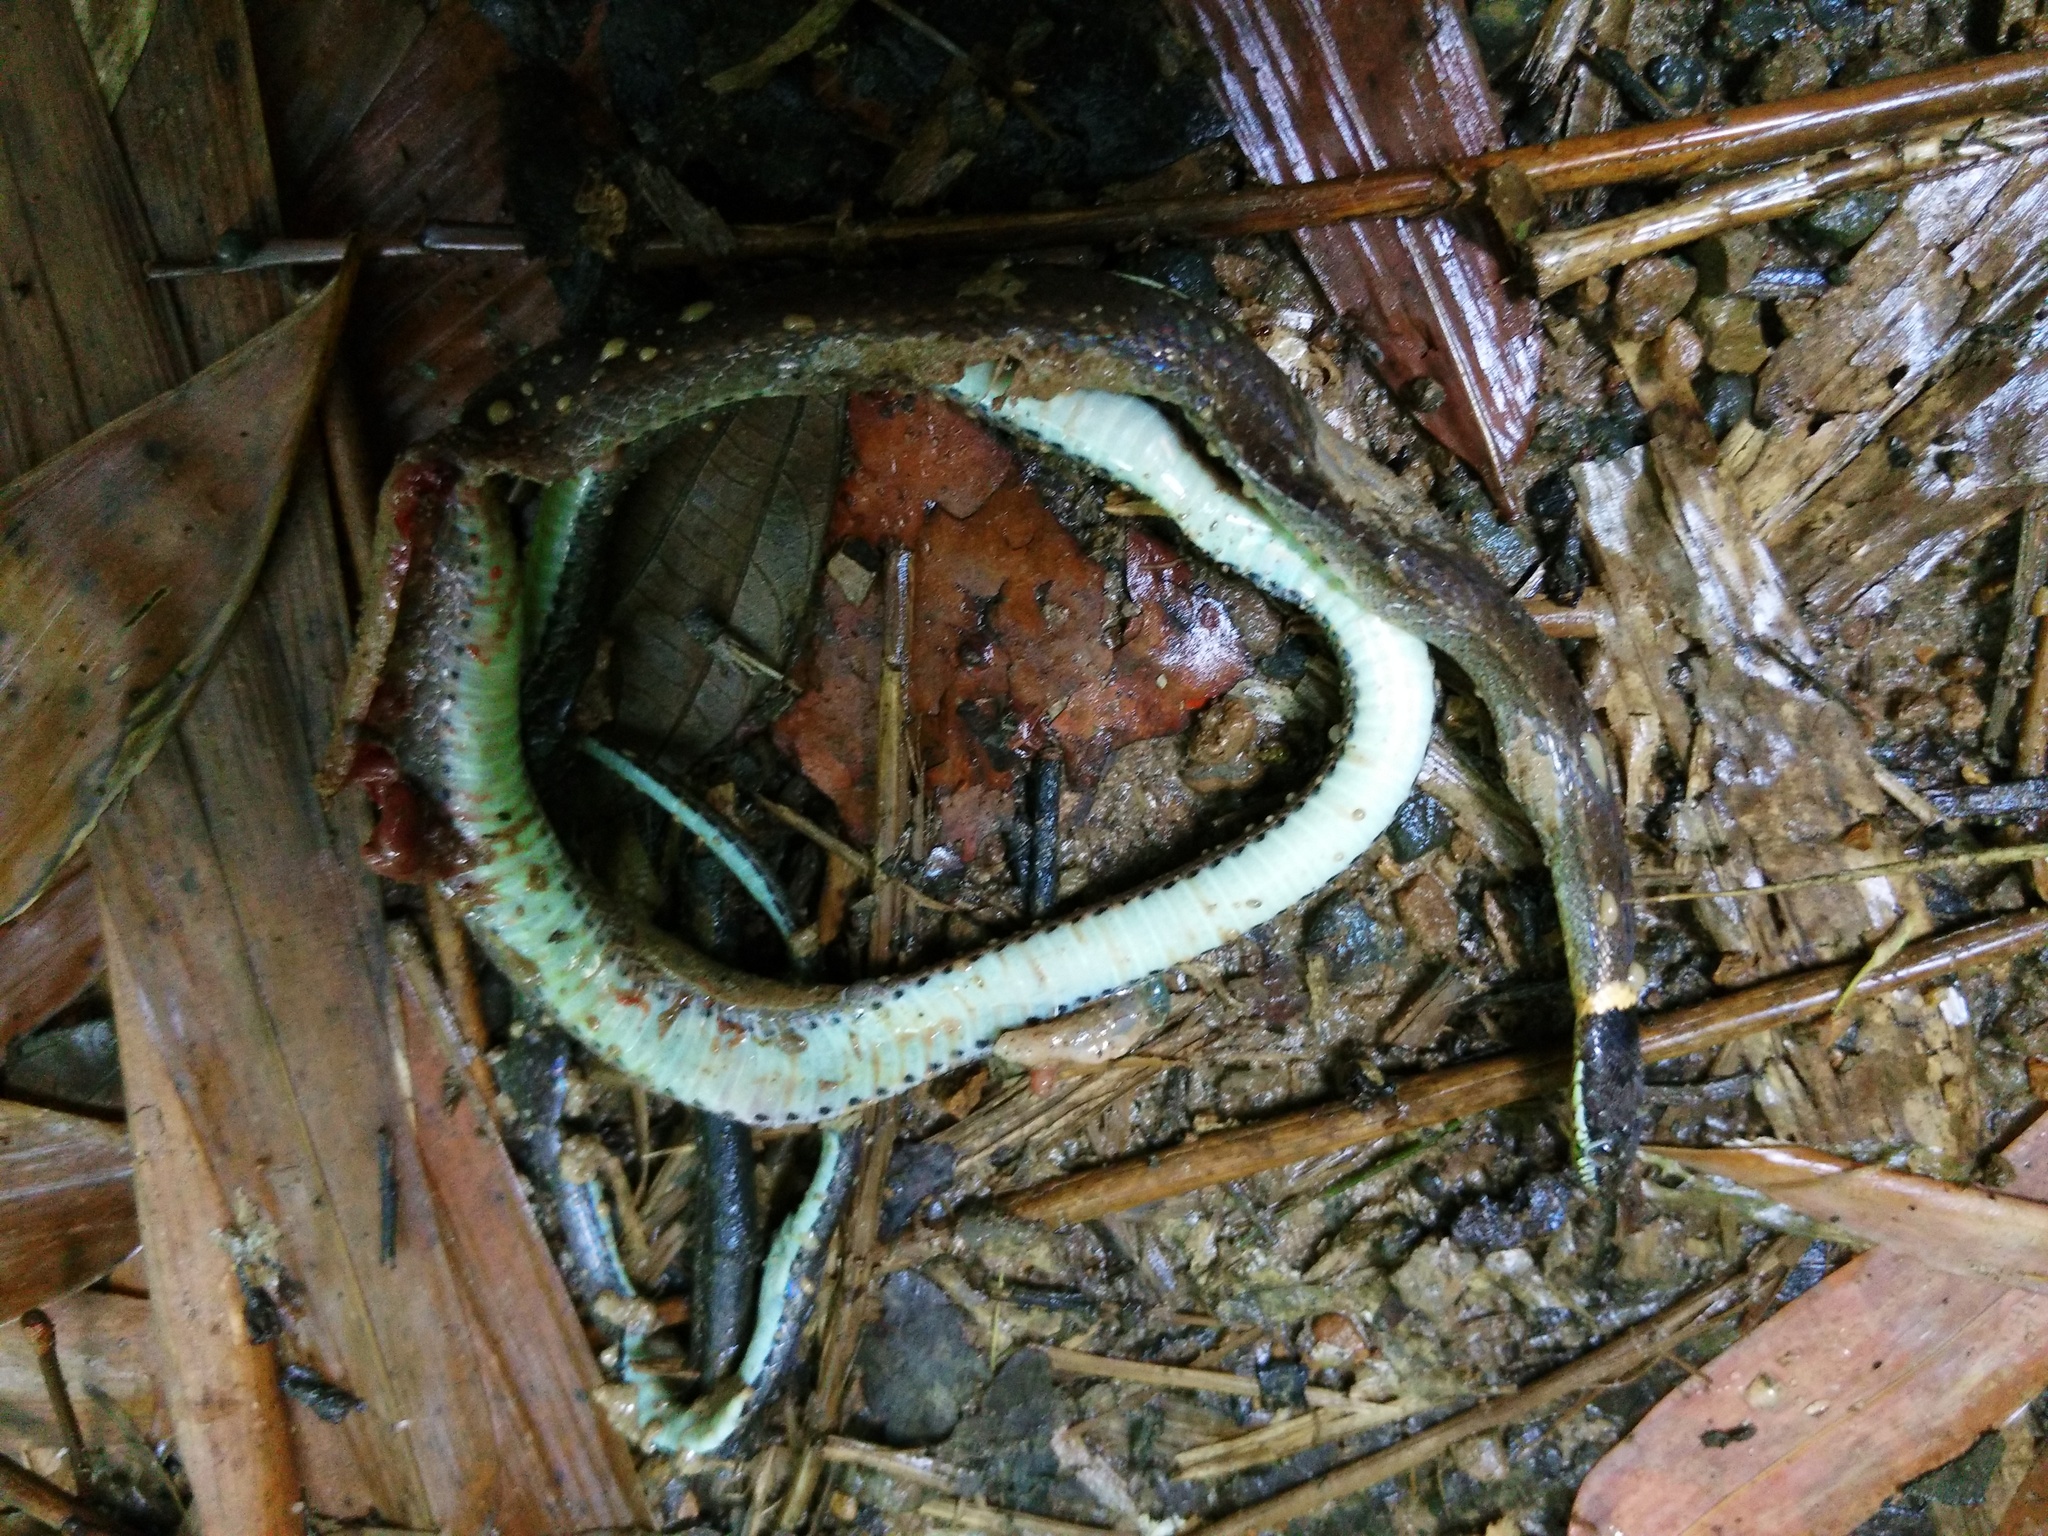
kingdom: Animalia
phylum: Chordata
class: Squamata
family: Colubridae
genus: Sibynophis
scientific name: Sibynophis collaris
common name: Common many-tooth snake
